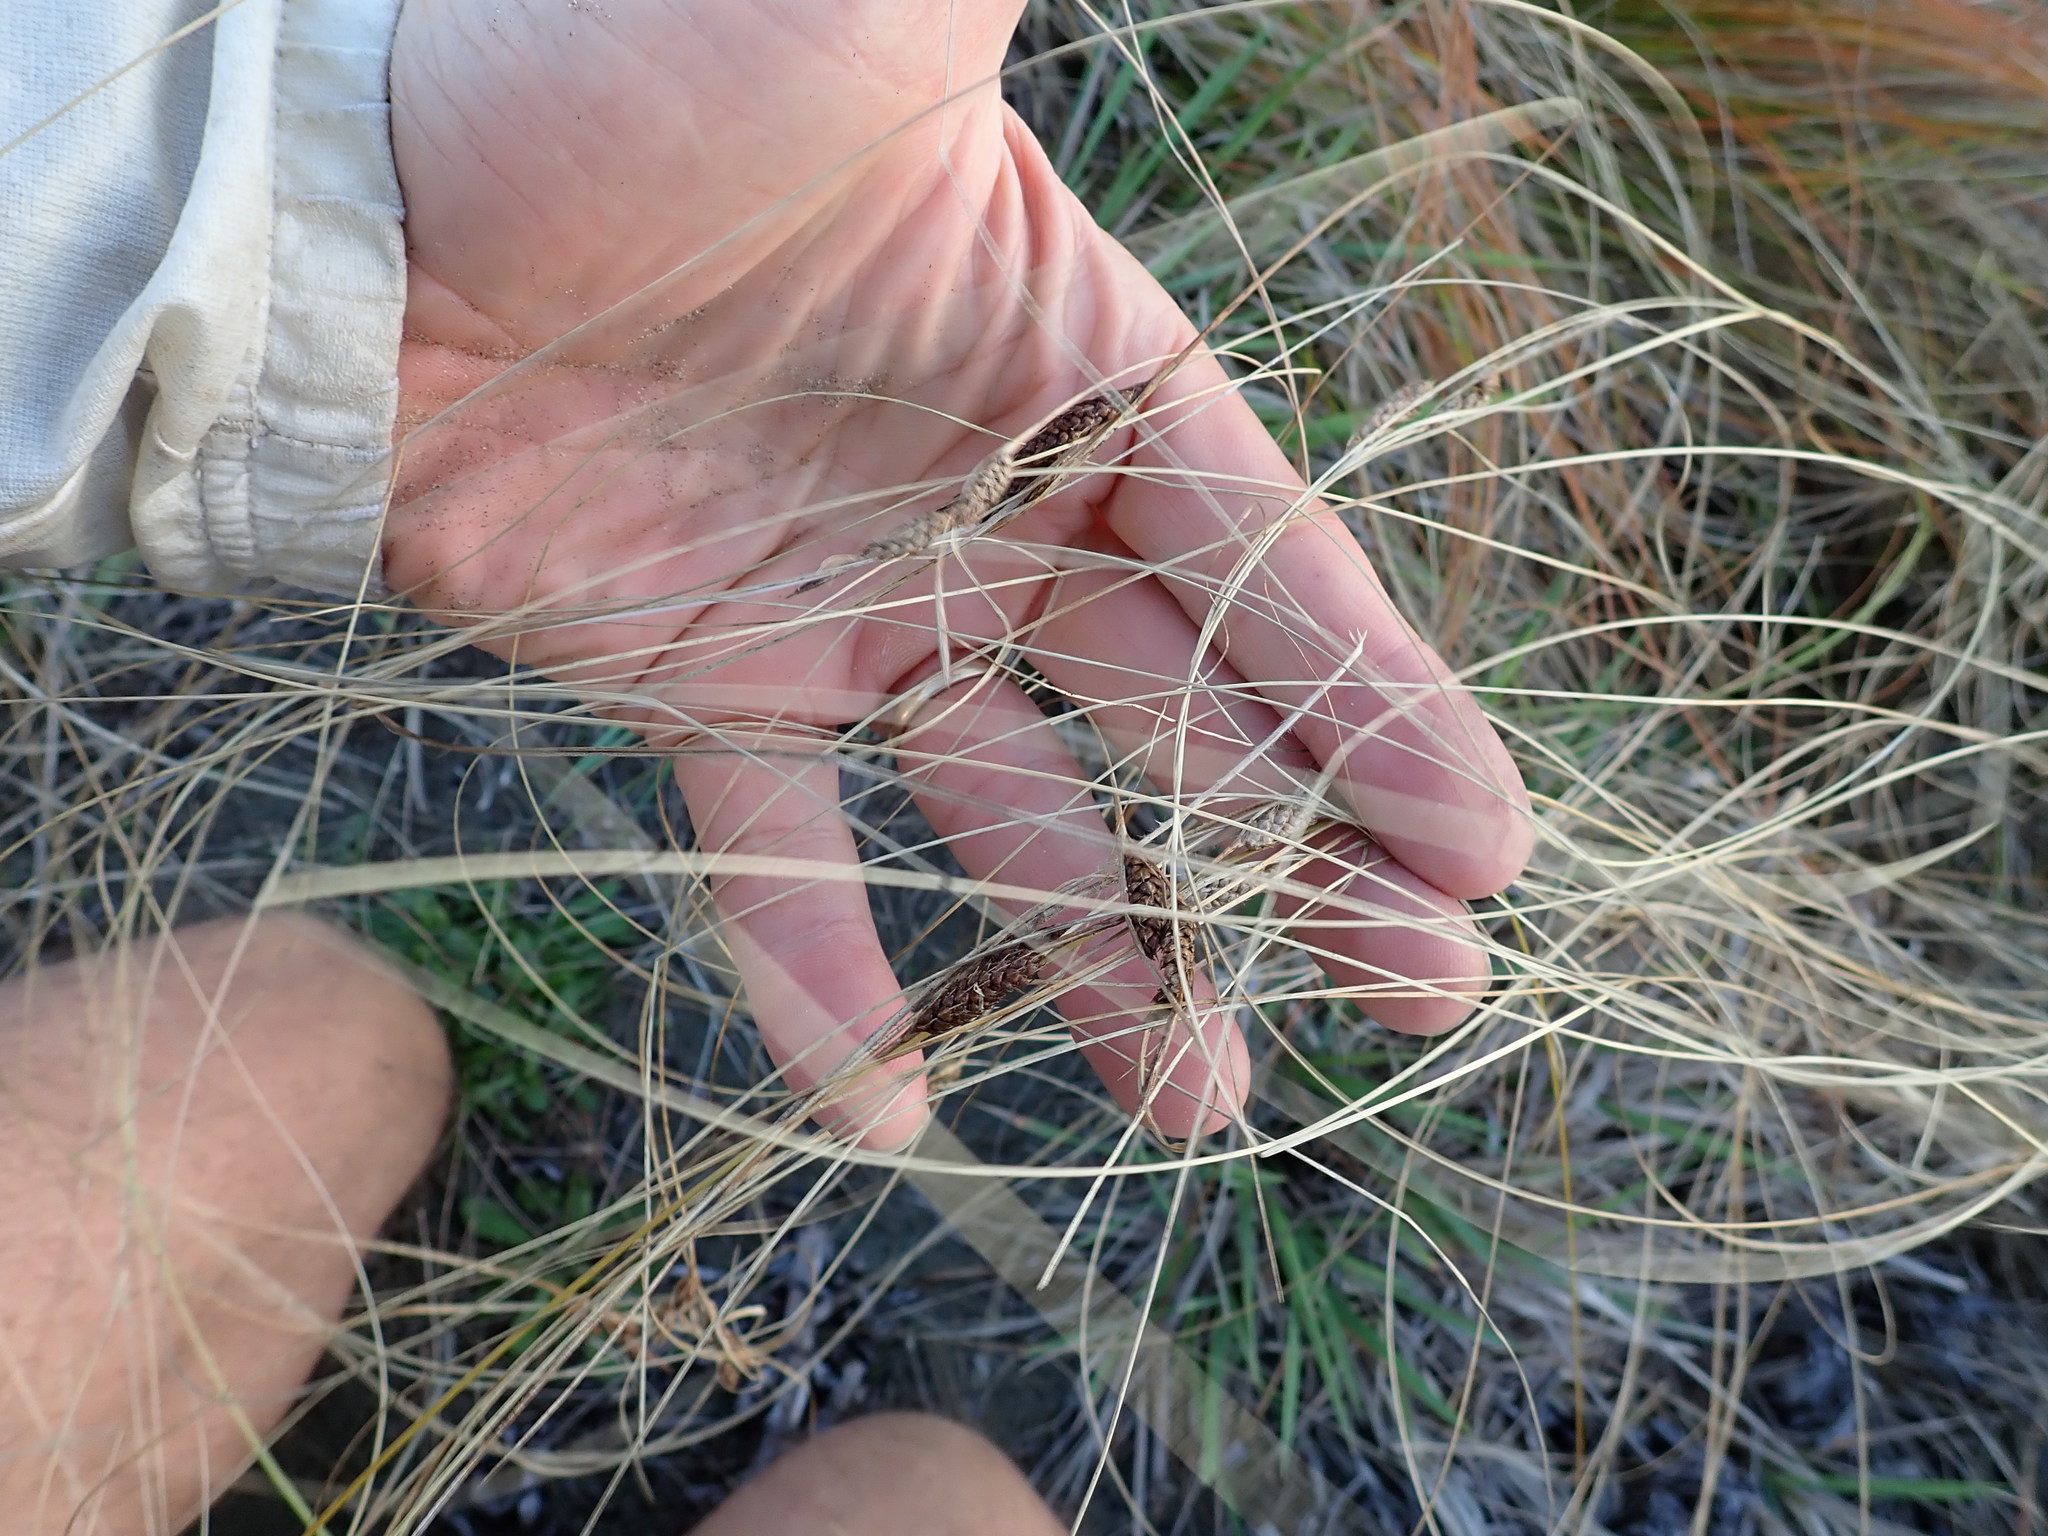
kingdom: Plantae
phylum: Tracheophyta
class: Liliopsida
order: Poales
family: Cyperaceae
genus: Carex
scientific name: Carex testacea
